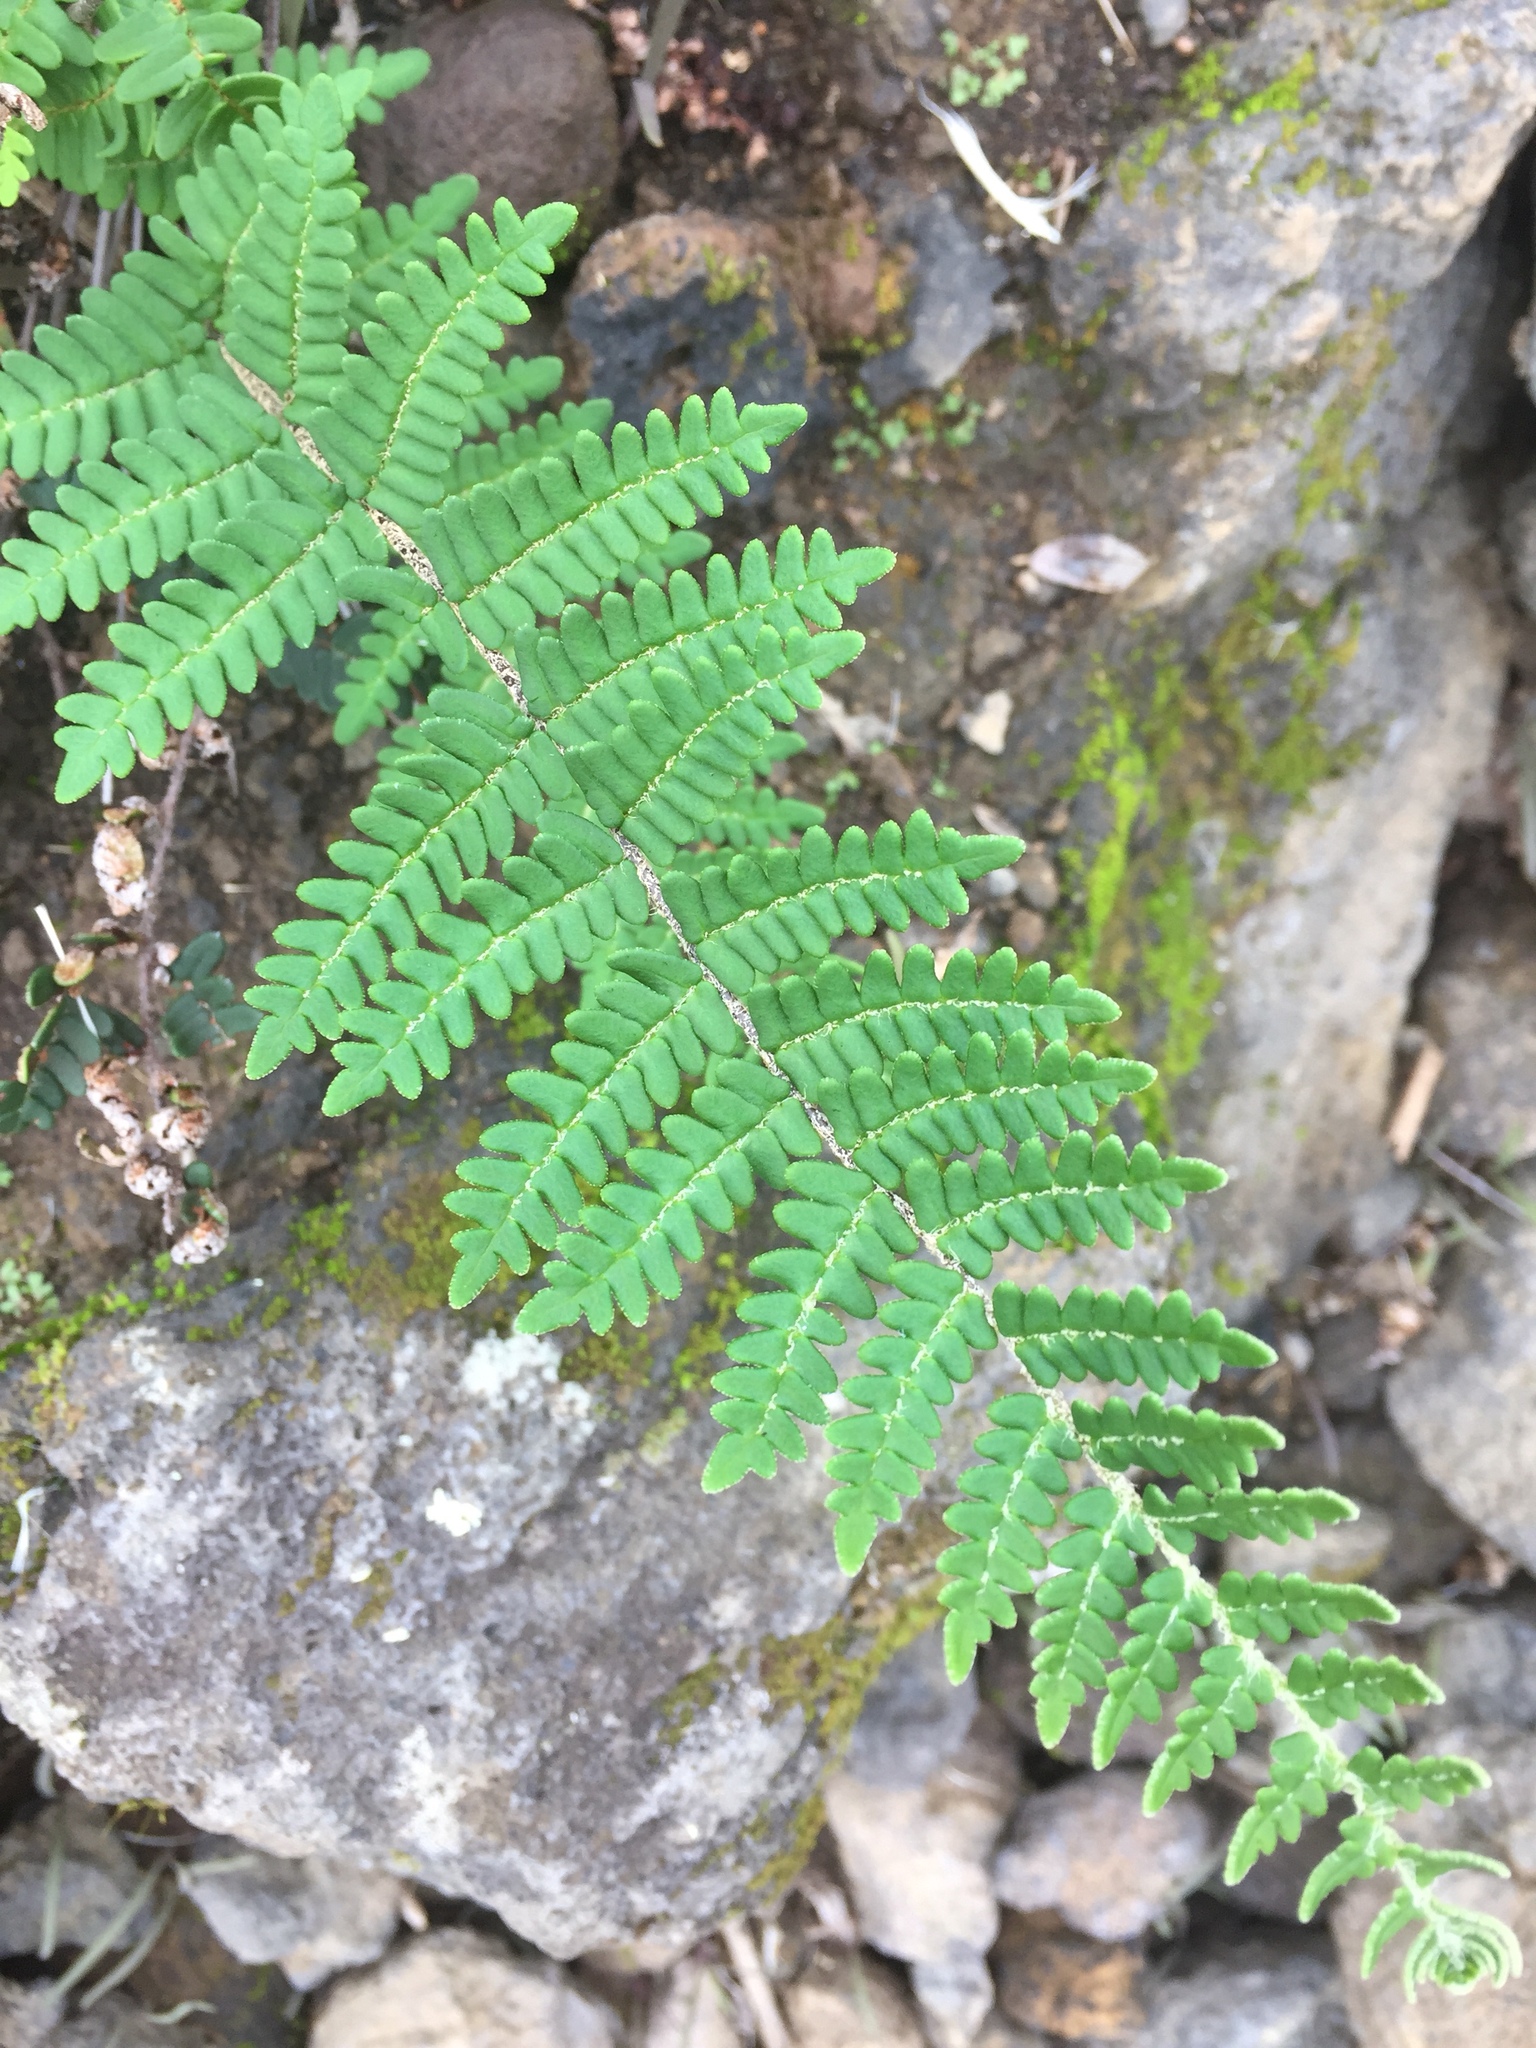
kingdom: Plantae
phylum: Tracheophyta
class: Polypodiopsida
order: Polypodiales
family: Pteridaceae
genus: Paragymnopteris
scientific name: Paragymnopteris marantae
